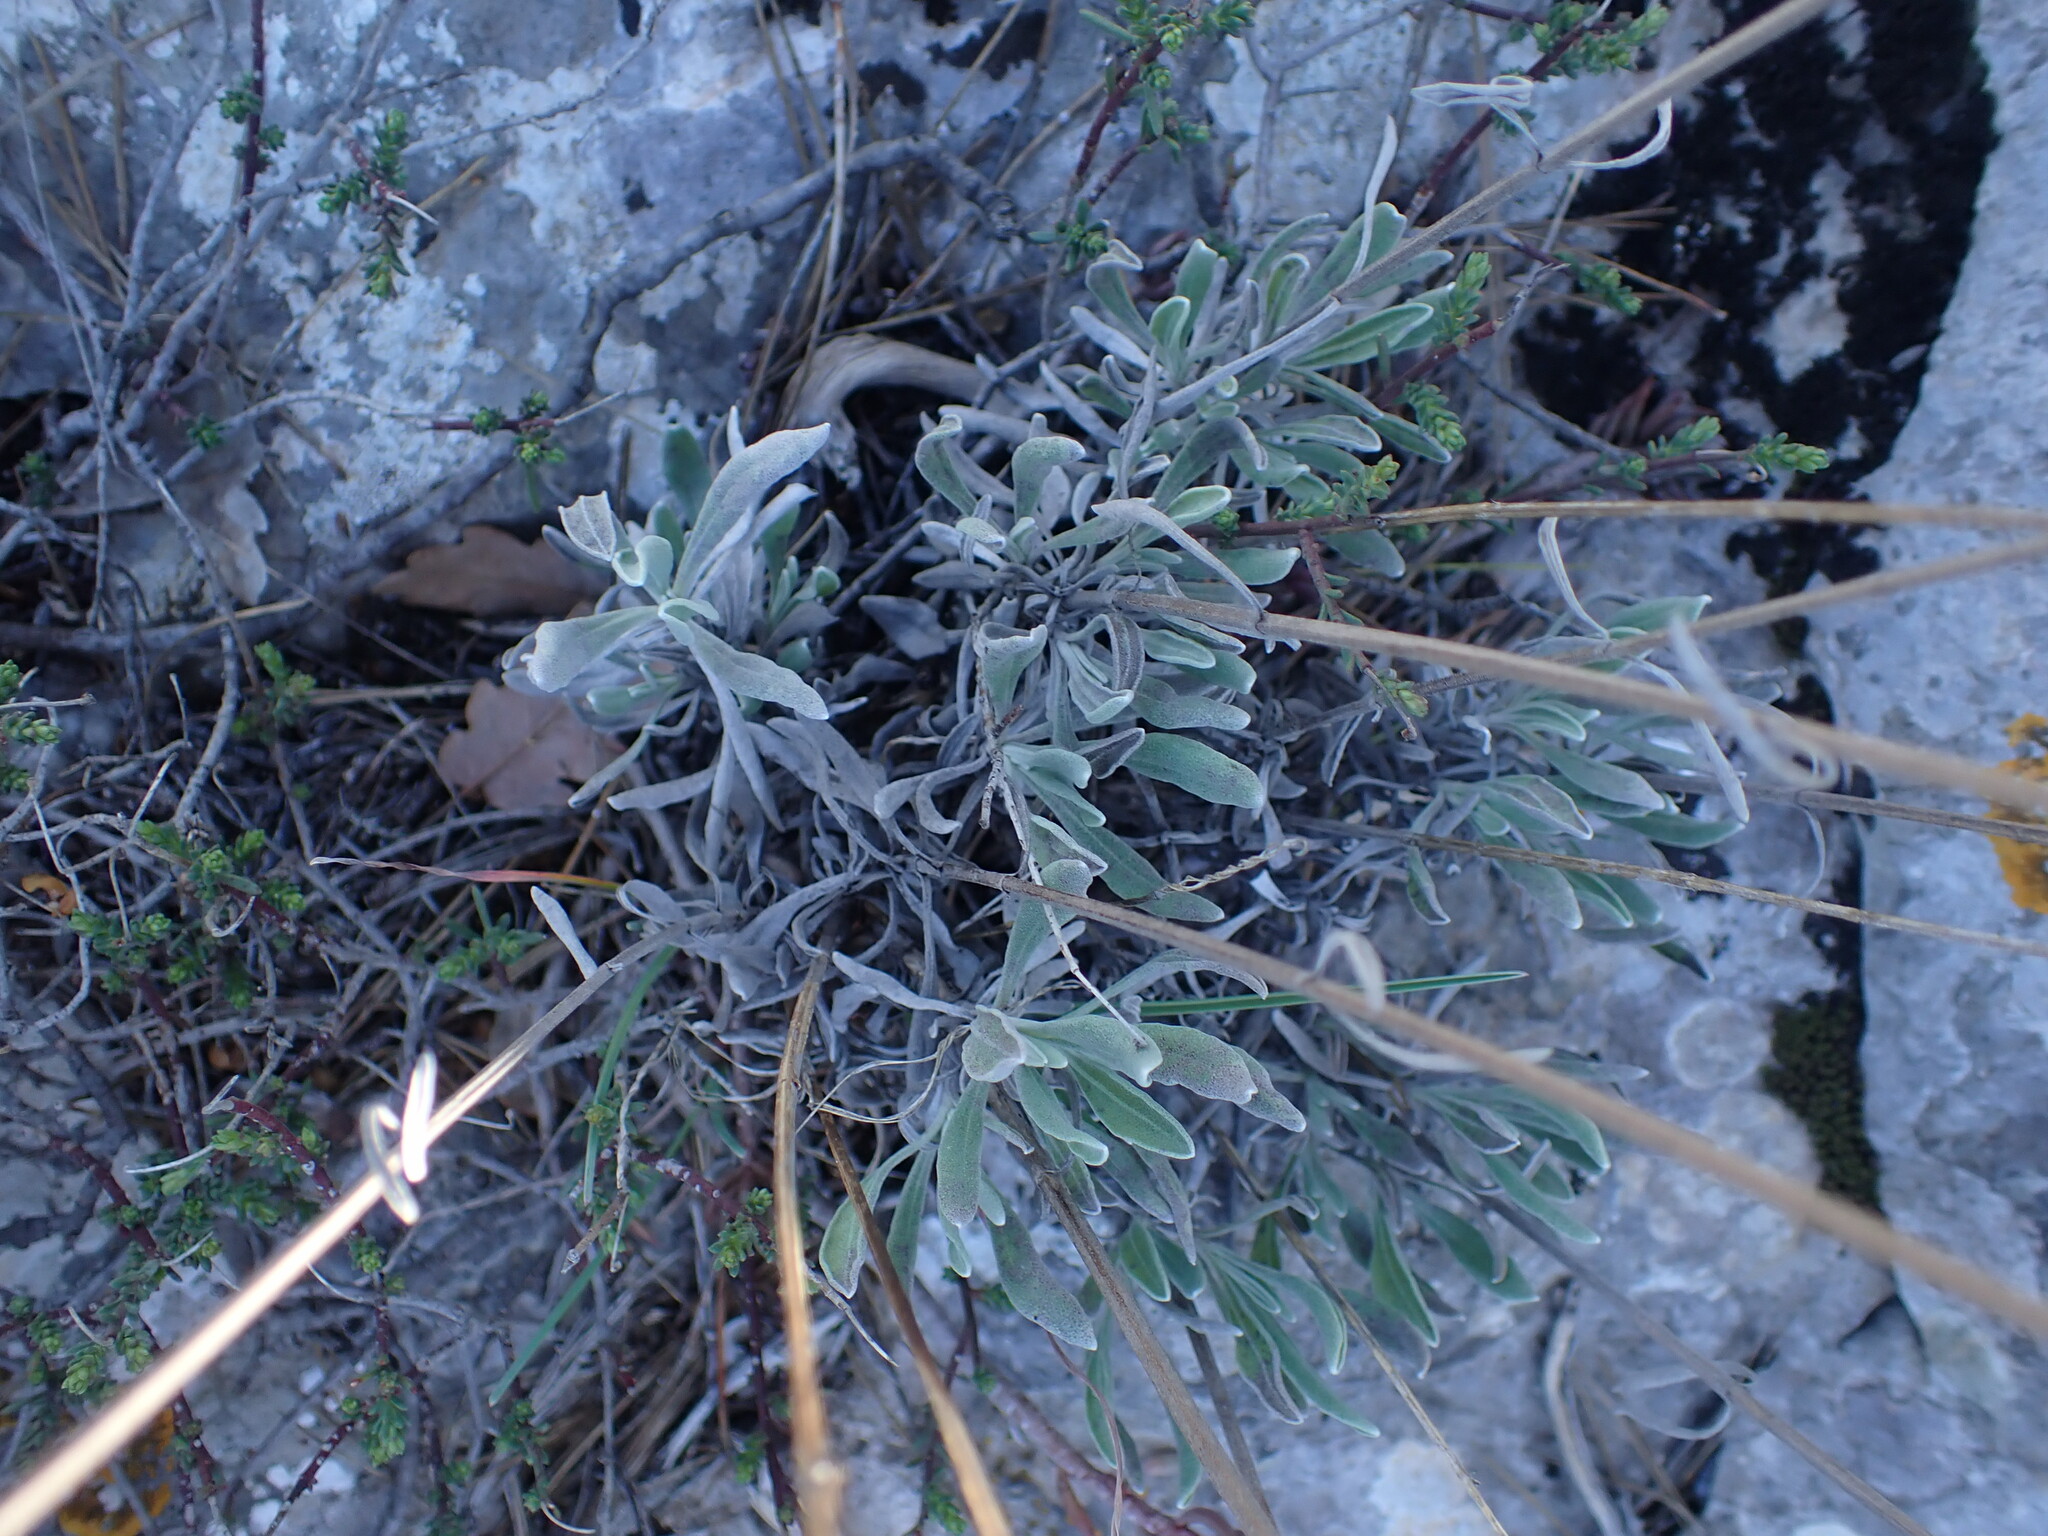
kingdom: Plantae
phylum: Tracheophyta
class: Magnoliopsida
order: Lamiales
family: Lamiaceae
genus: Lavandula
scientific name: Lavandula latifolia
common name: Spike lavendar
